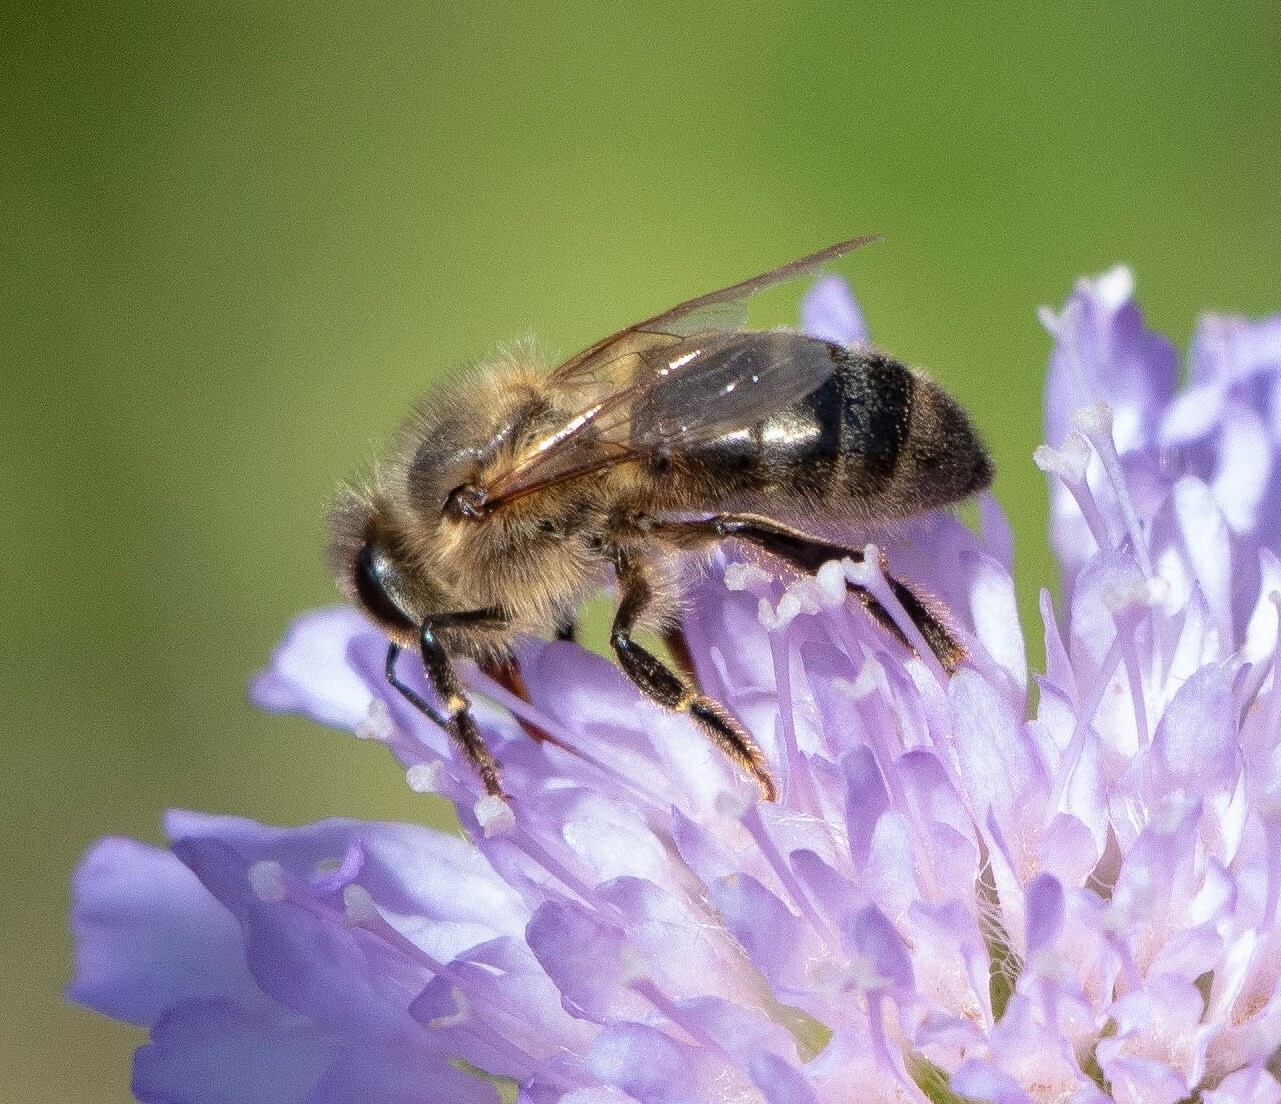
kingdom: Animalia
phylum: Arthropoda
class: Insecta
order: Hymenoptera
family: Apidae
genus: Apis
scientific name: Apis mellifera
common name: Honey bee
